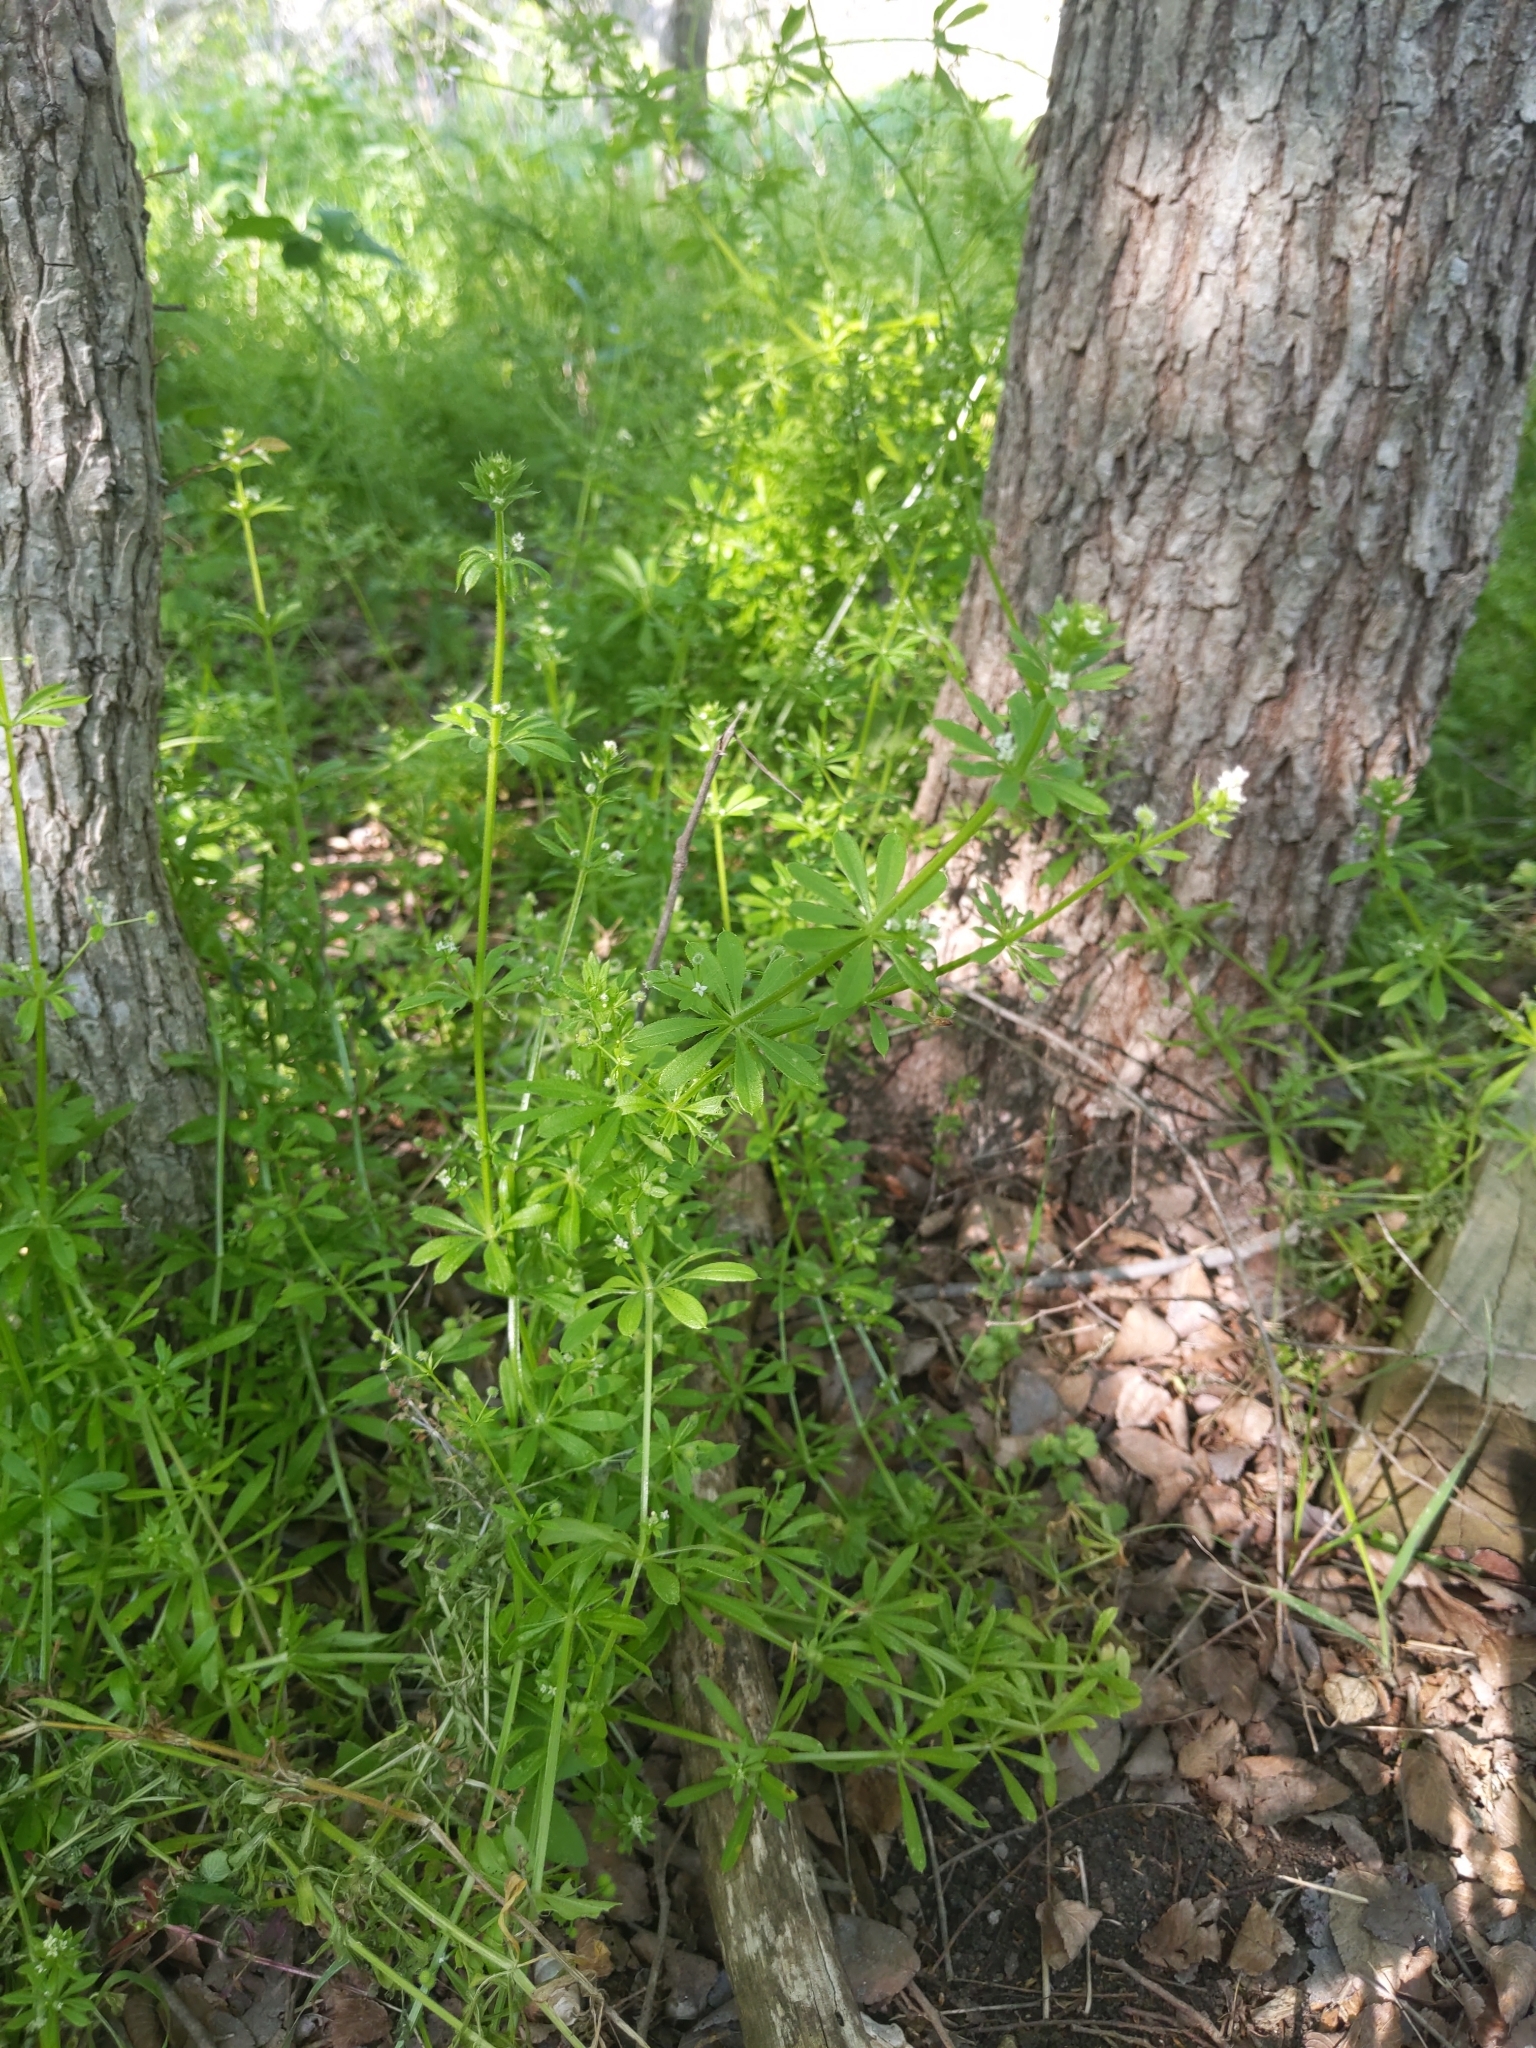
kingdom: Plantae
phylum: Tracheophyta
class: Magnoliopsida
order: Gentianales
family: Rubiaceae
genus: Galium
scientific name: Galium aparine
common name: Cleavers
